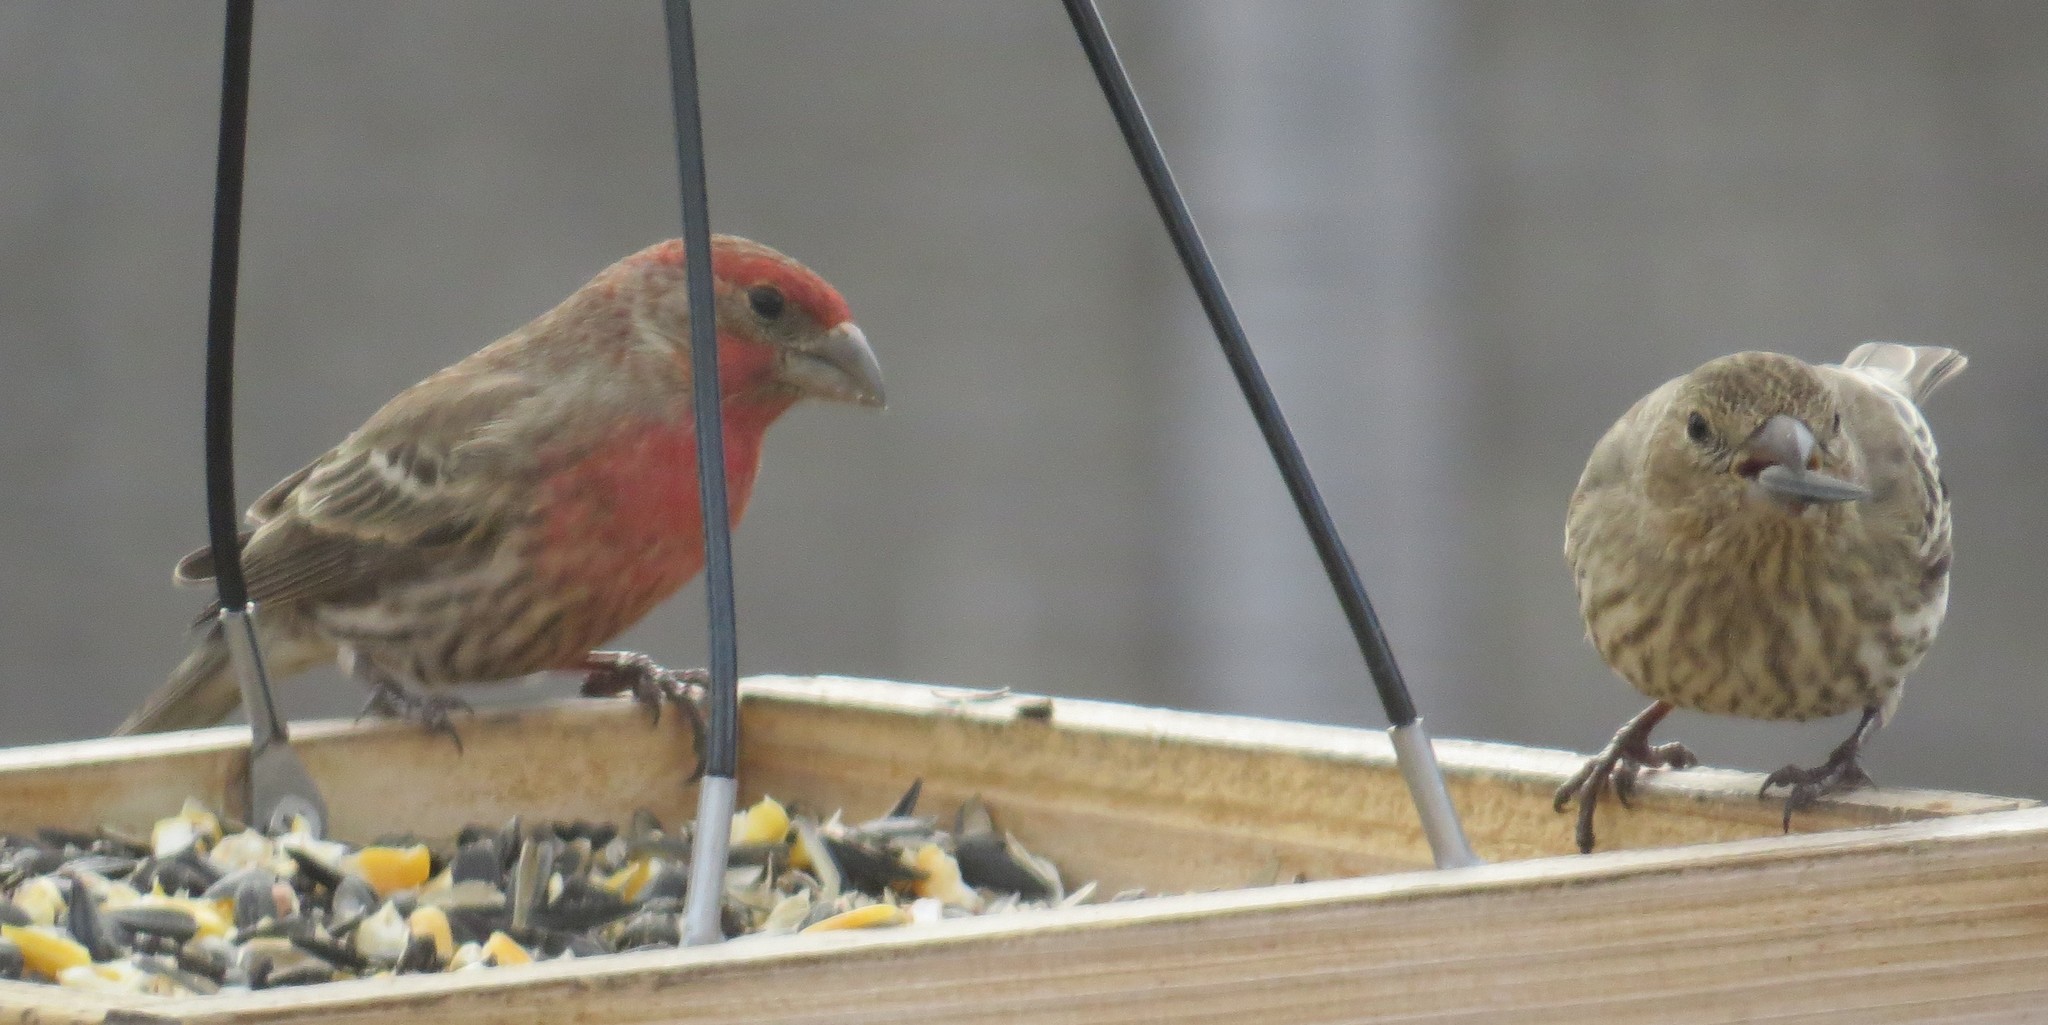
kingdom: Animalia
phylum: Chordata
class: Aves
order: Passeriformes
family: Fringillidae
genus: Haemorhous
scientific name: Haemorhous mexicanus
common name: House finch
